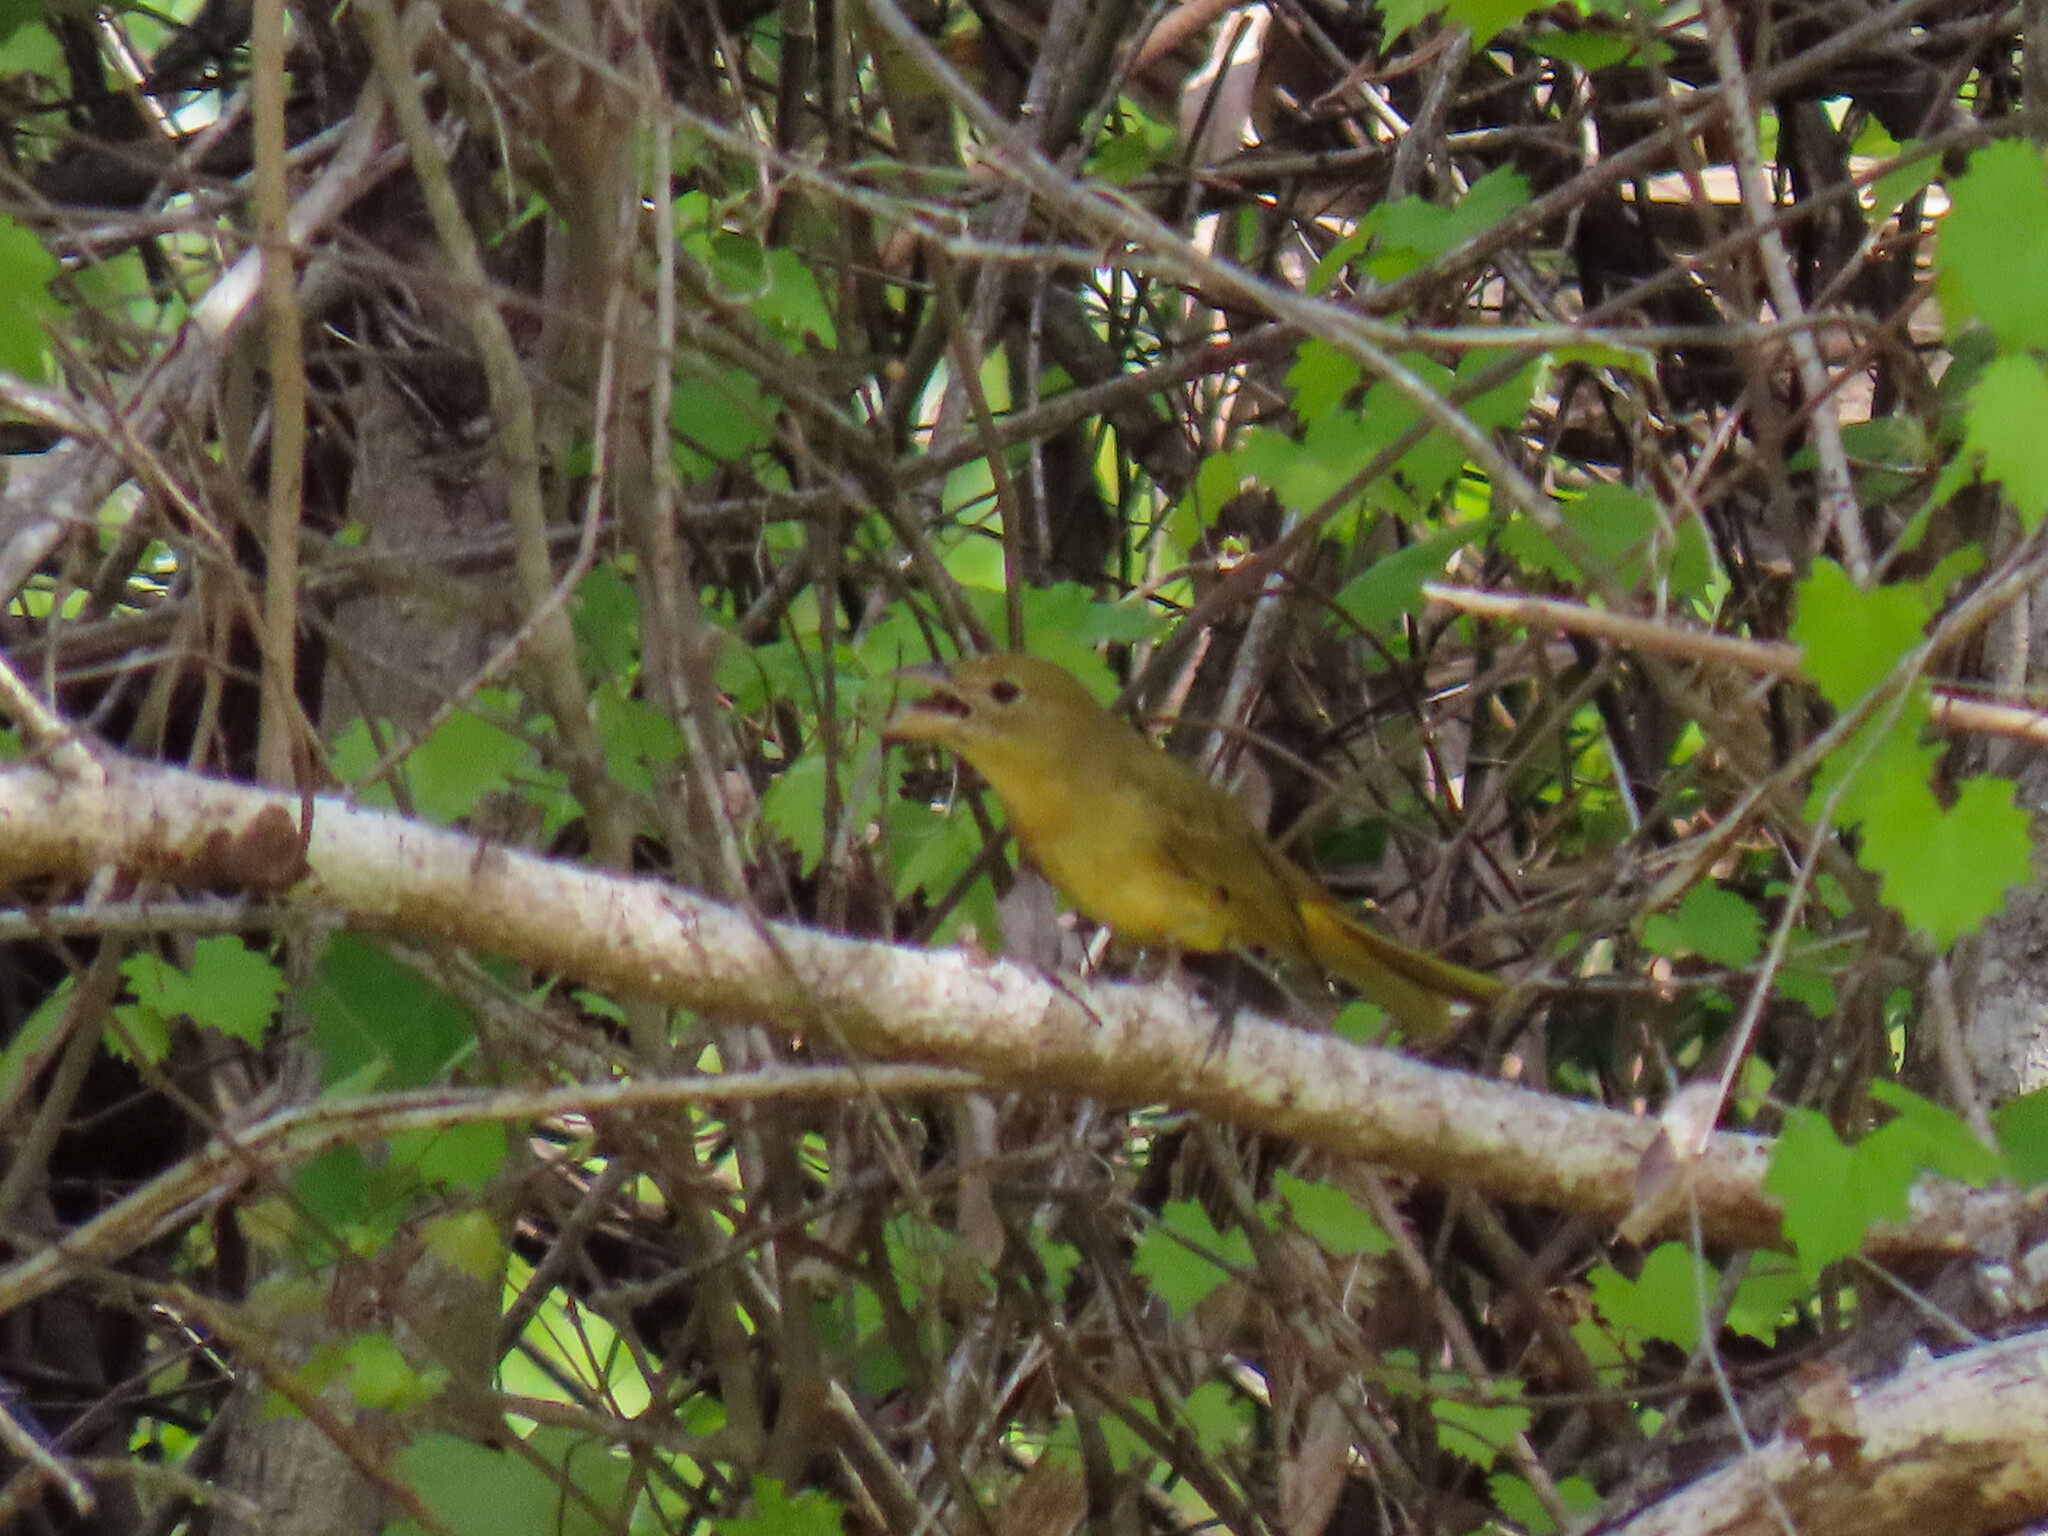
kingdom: Animalia
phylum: Chordata
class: Aves
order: Passeriformes
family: Cardinalidae
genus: Piranga
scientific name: Piranga rubra
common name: Summer tanager
